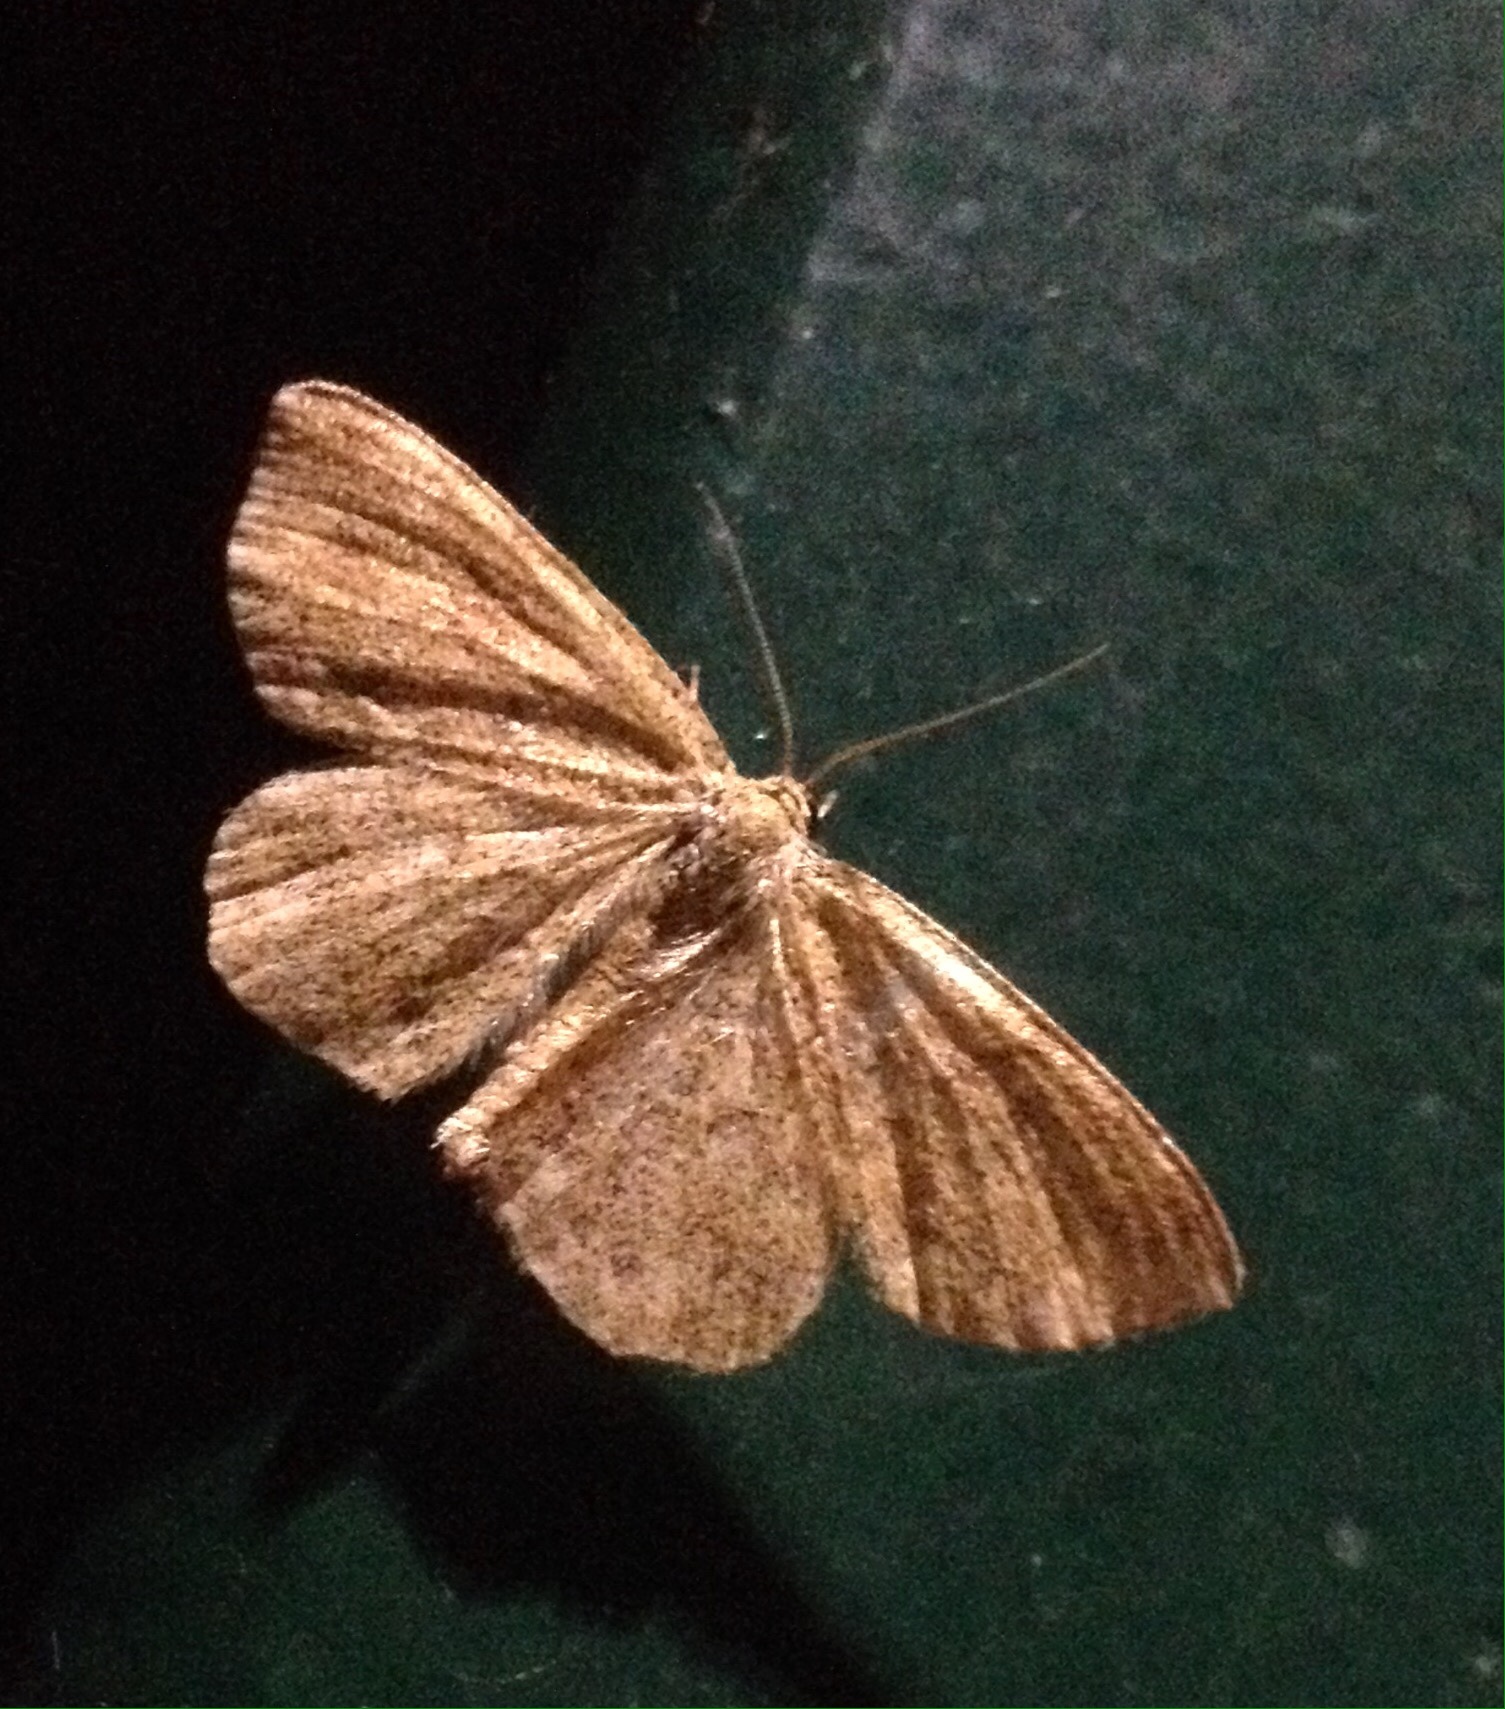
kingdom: Animalia
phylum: Arthropoda
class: Insecta
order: Lepidoptera
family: Geometridae
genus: Scopula
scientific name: Scopula immorata
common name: Lewes wave
